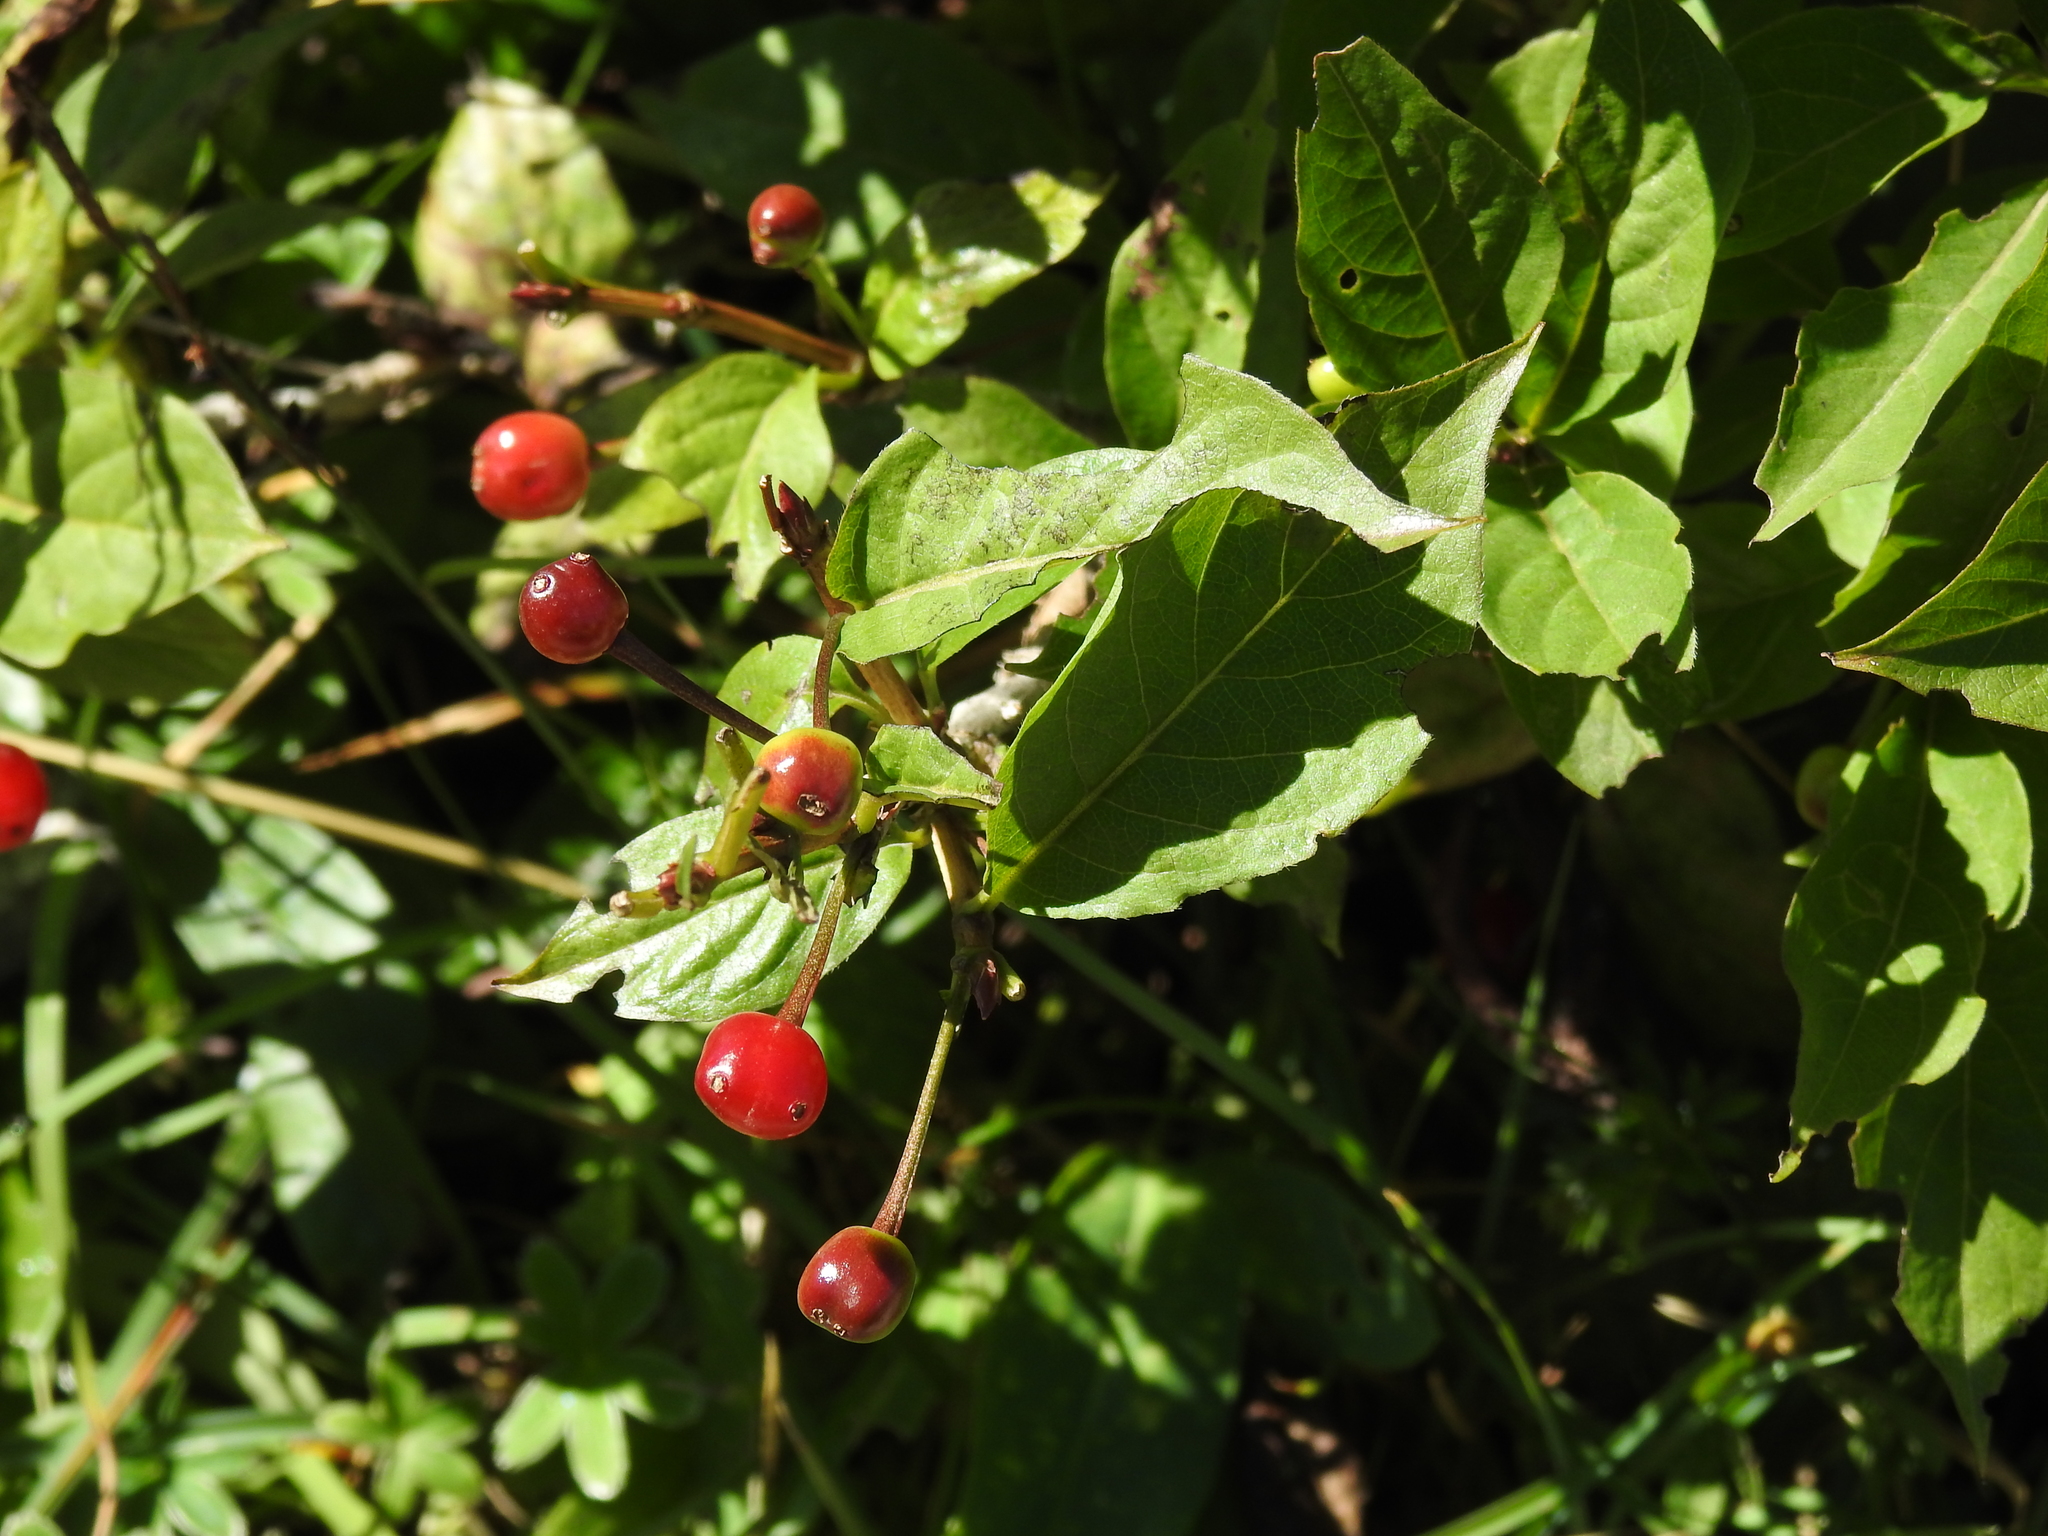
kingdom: Plantae
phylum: Tracheophyta
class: Magnoliopsida
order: Dipsacales
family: Caprifoliaceae
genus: Lonicera
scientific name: Lonicera alpigena
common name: Alpine honeysuckle
